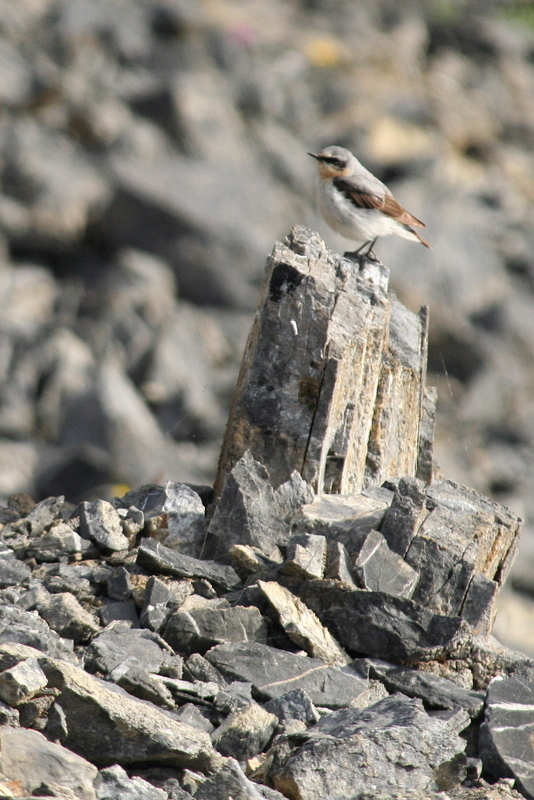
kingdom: Animalia
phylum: Chordata
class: Aves
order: Passeriformes
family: Muscicapidae
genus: Oenanthe
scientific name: Oenanthe oenanthe
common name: Northern wheatear
